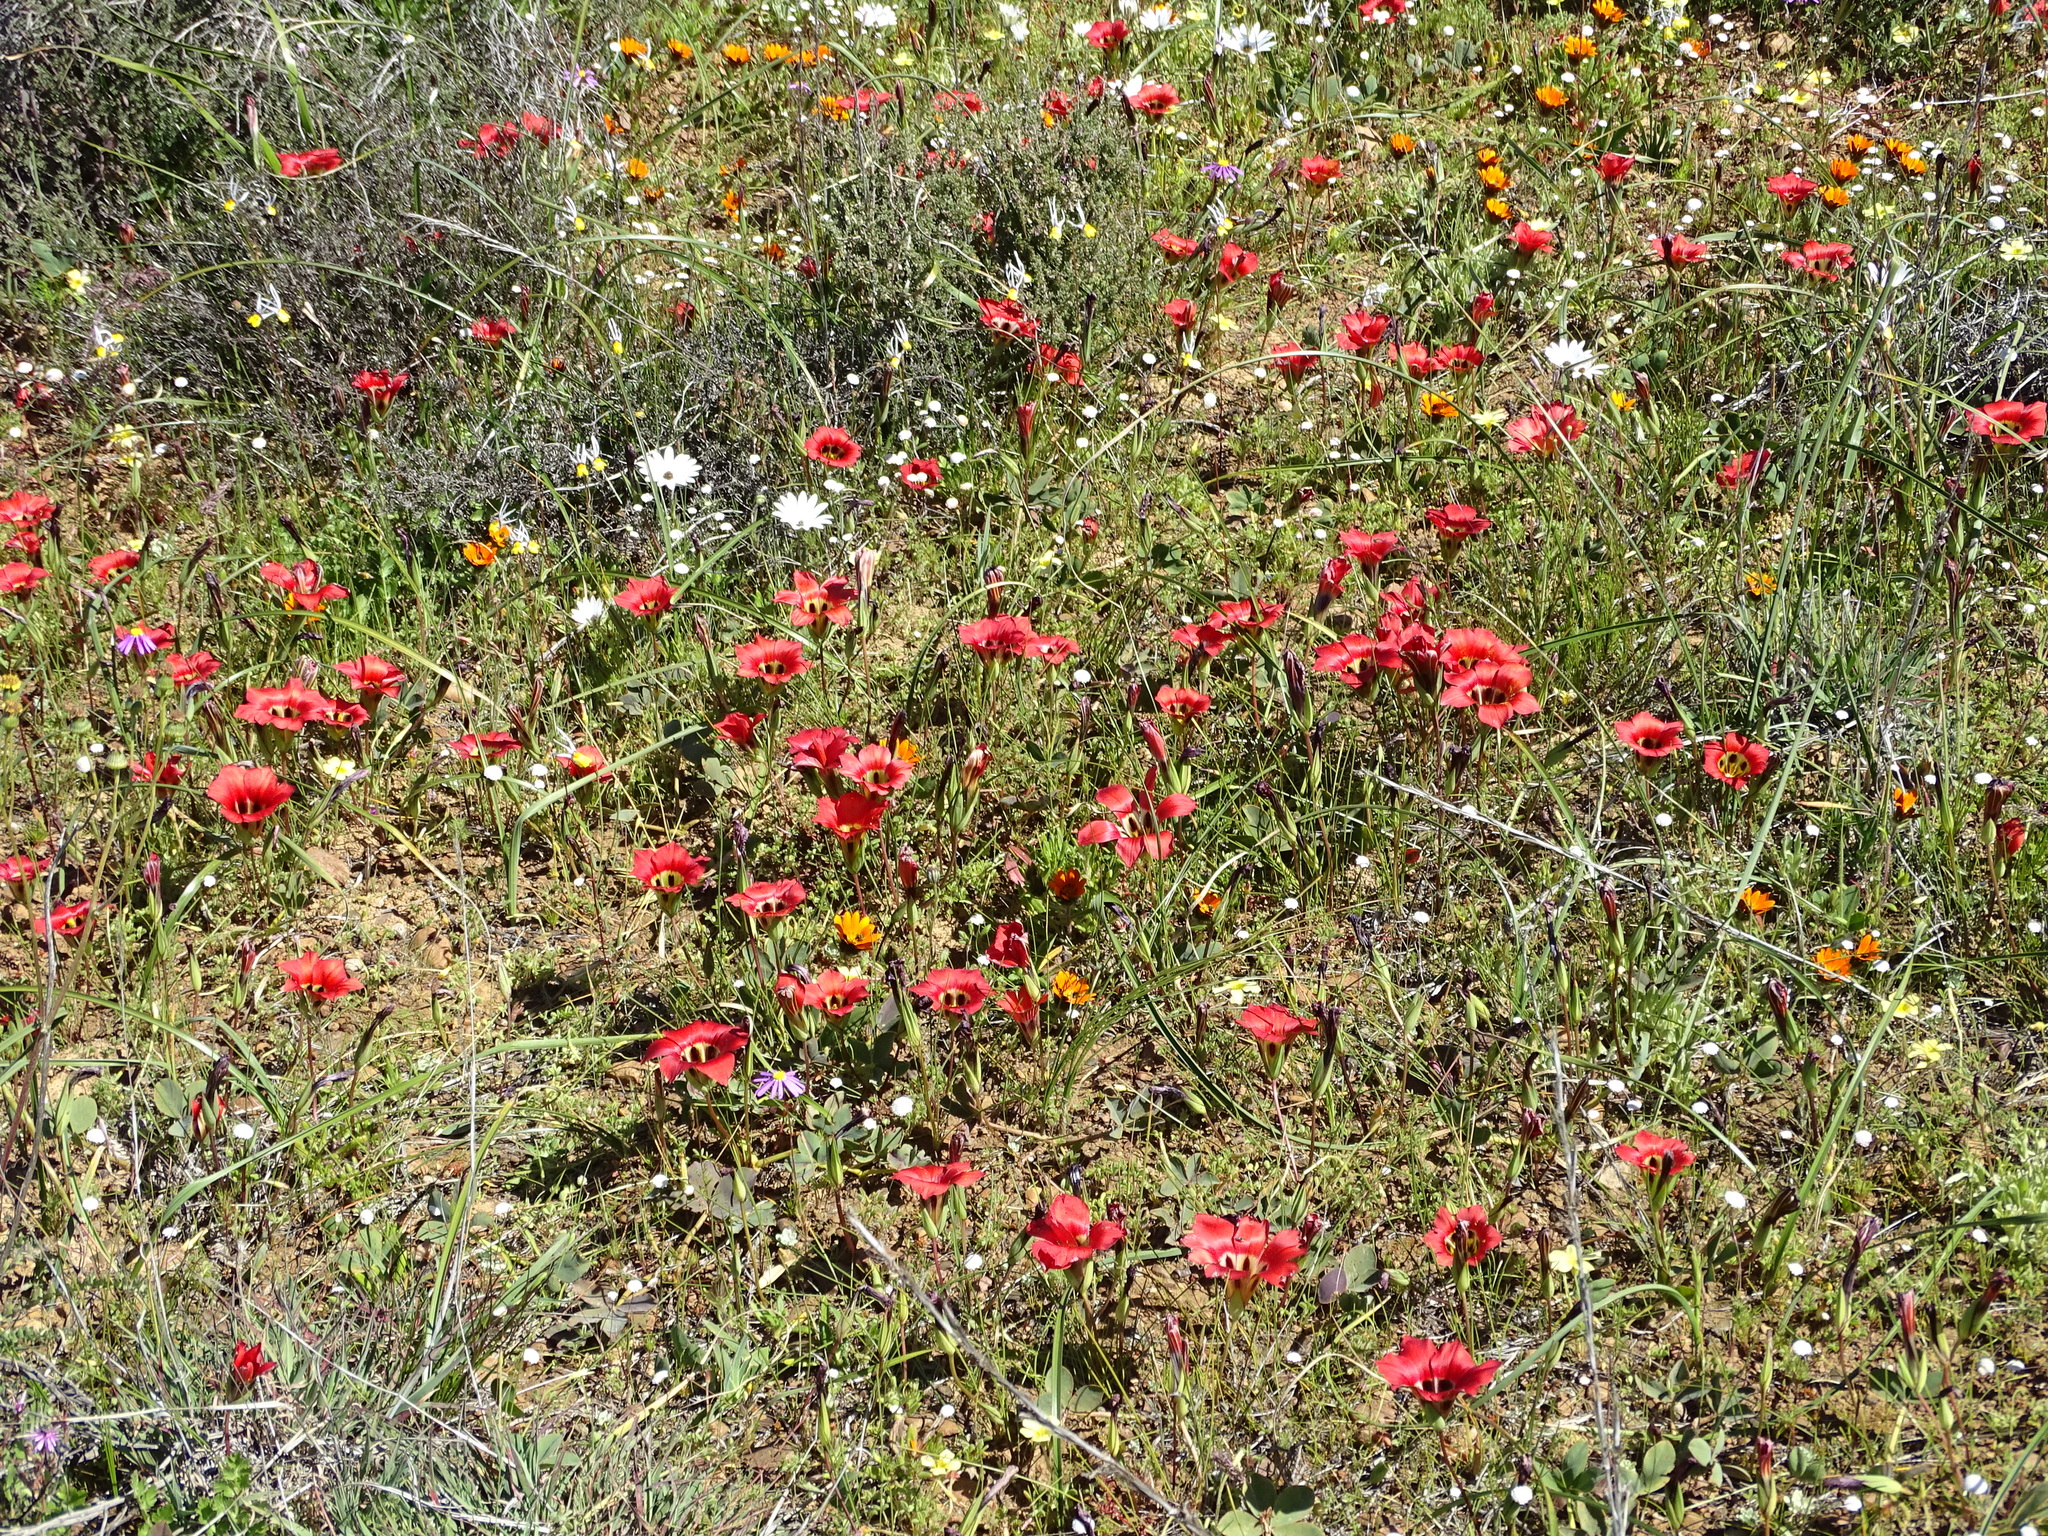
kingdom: Plantae
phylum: Tracheophyta
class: Liliopsida
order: Asparagales
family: Iridaceae
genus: Romulea
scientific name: Romulea sabulosa
